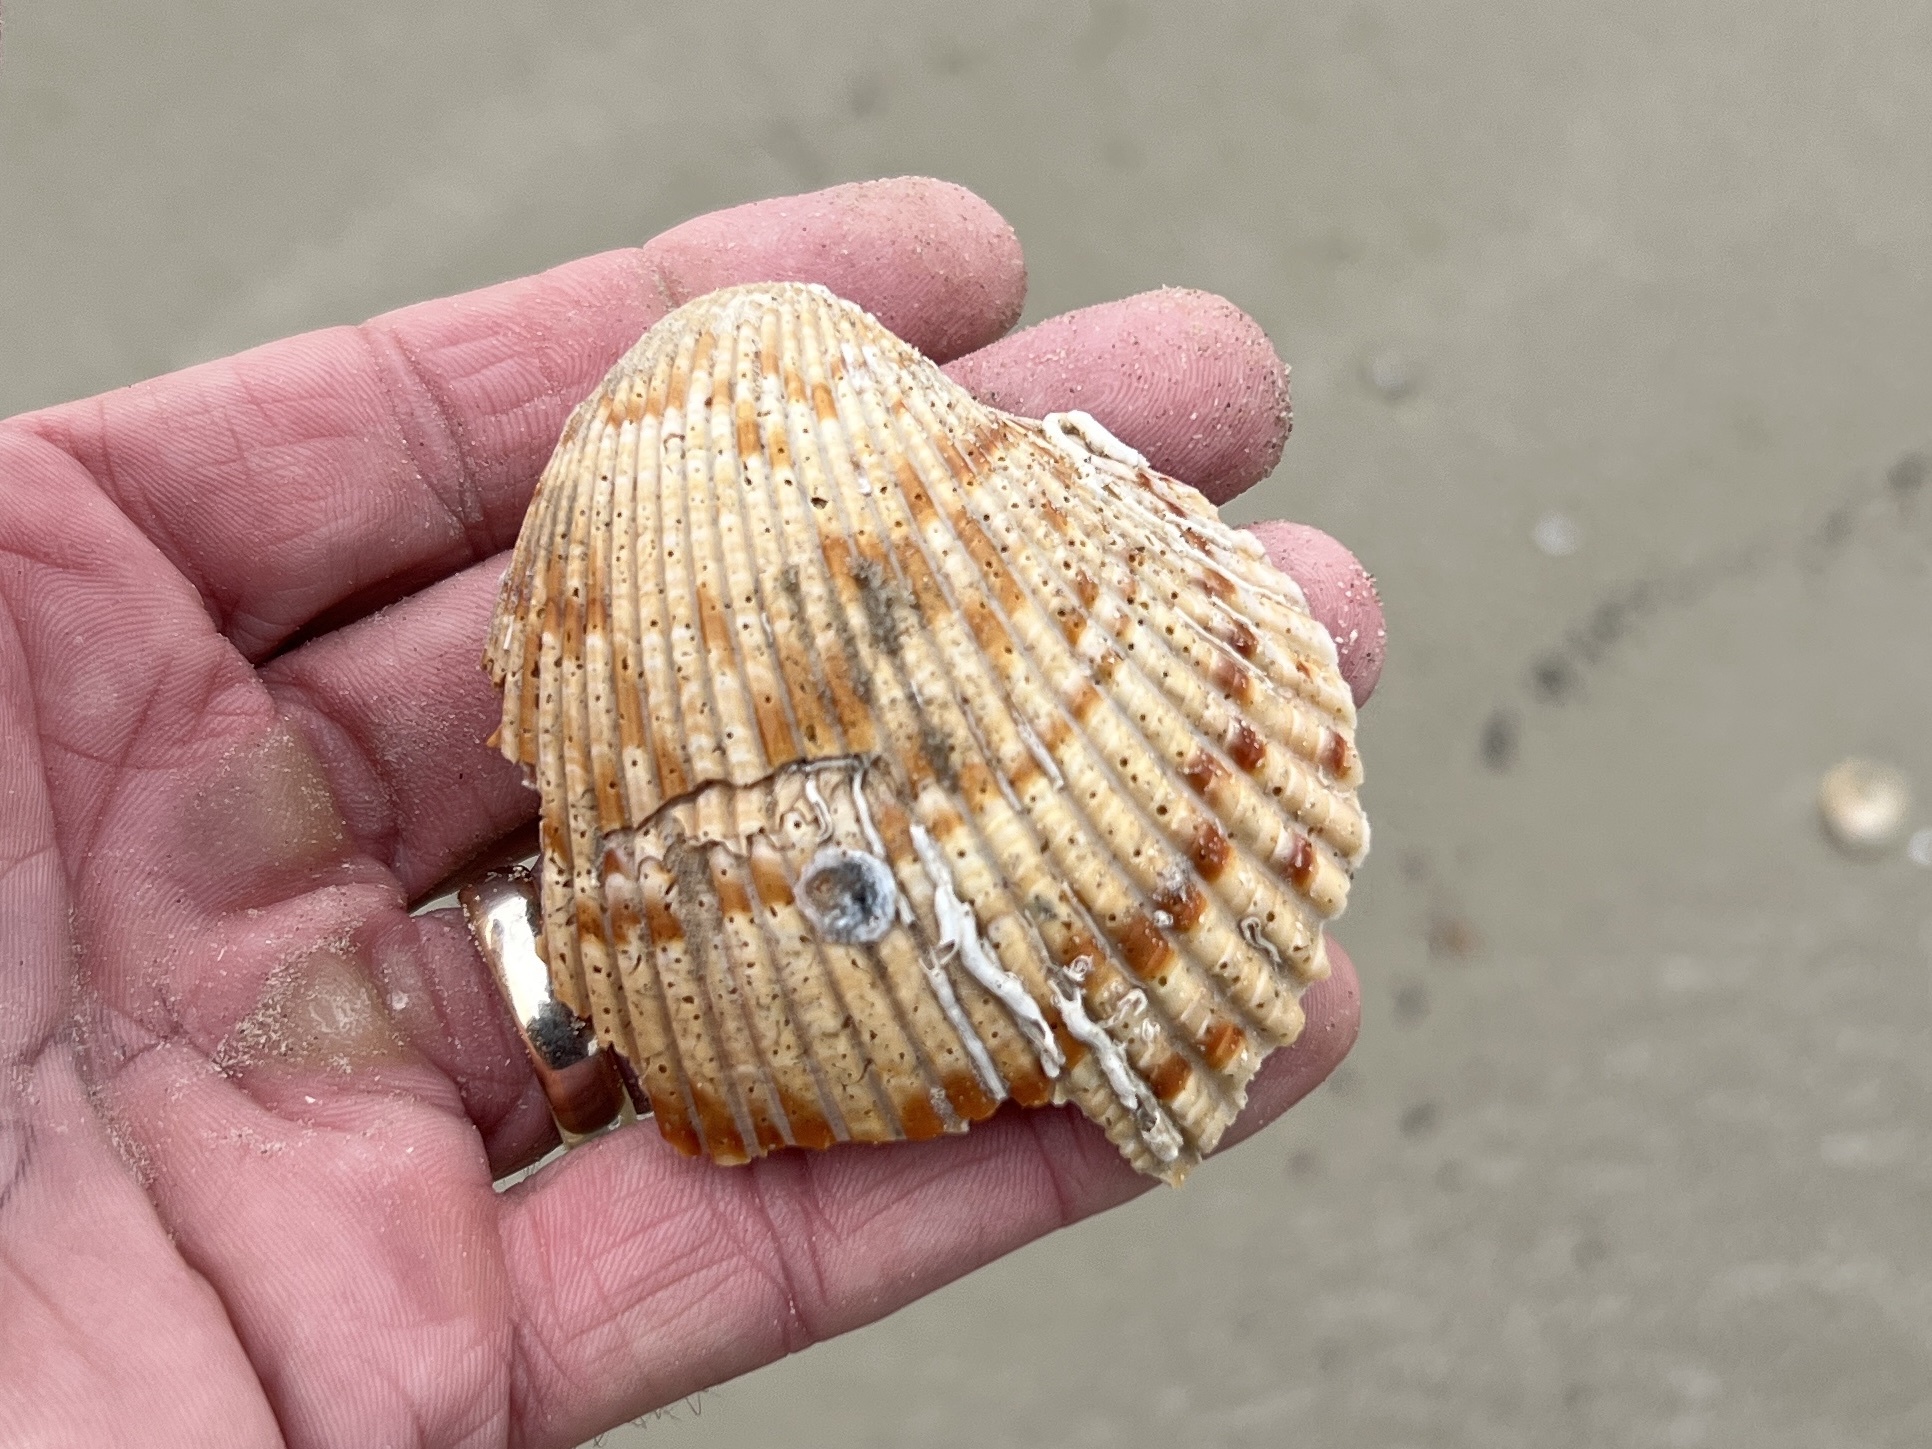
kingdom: Animalia
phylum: Mollusca
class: Bivalvia
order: Cardiida
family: Cardiidae
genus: Dinocardium
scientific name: Dinocardium robustum
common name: Atlantic giant cockle
